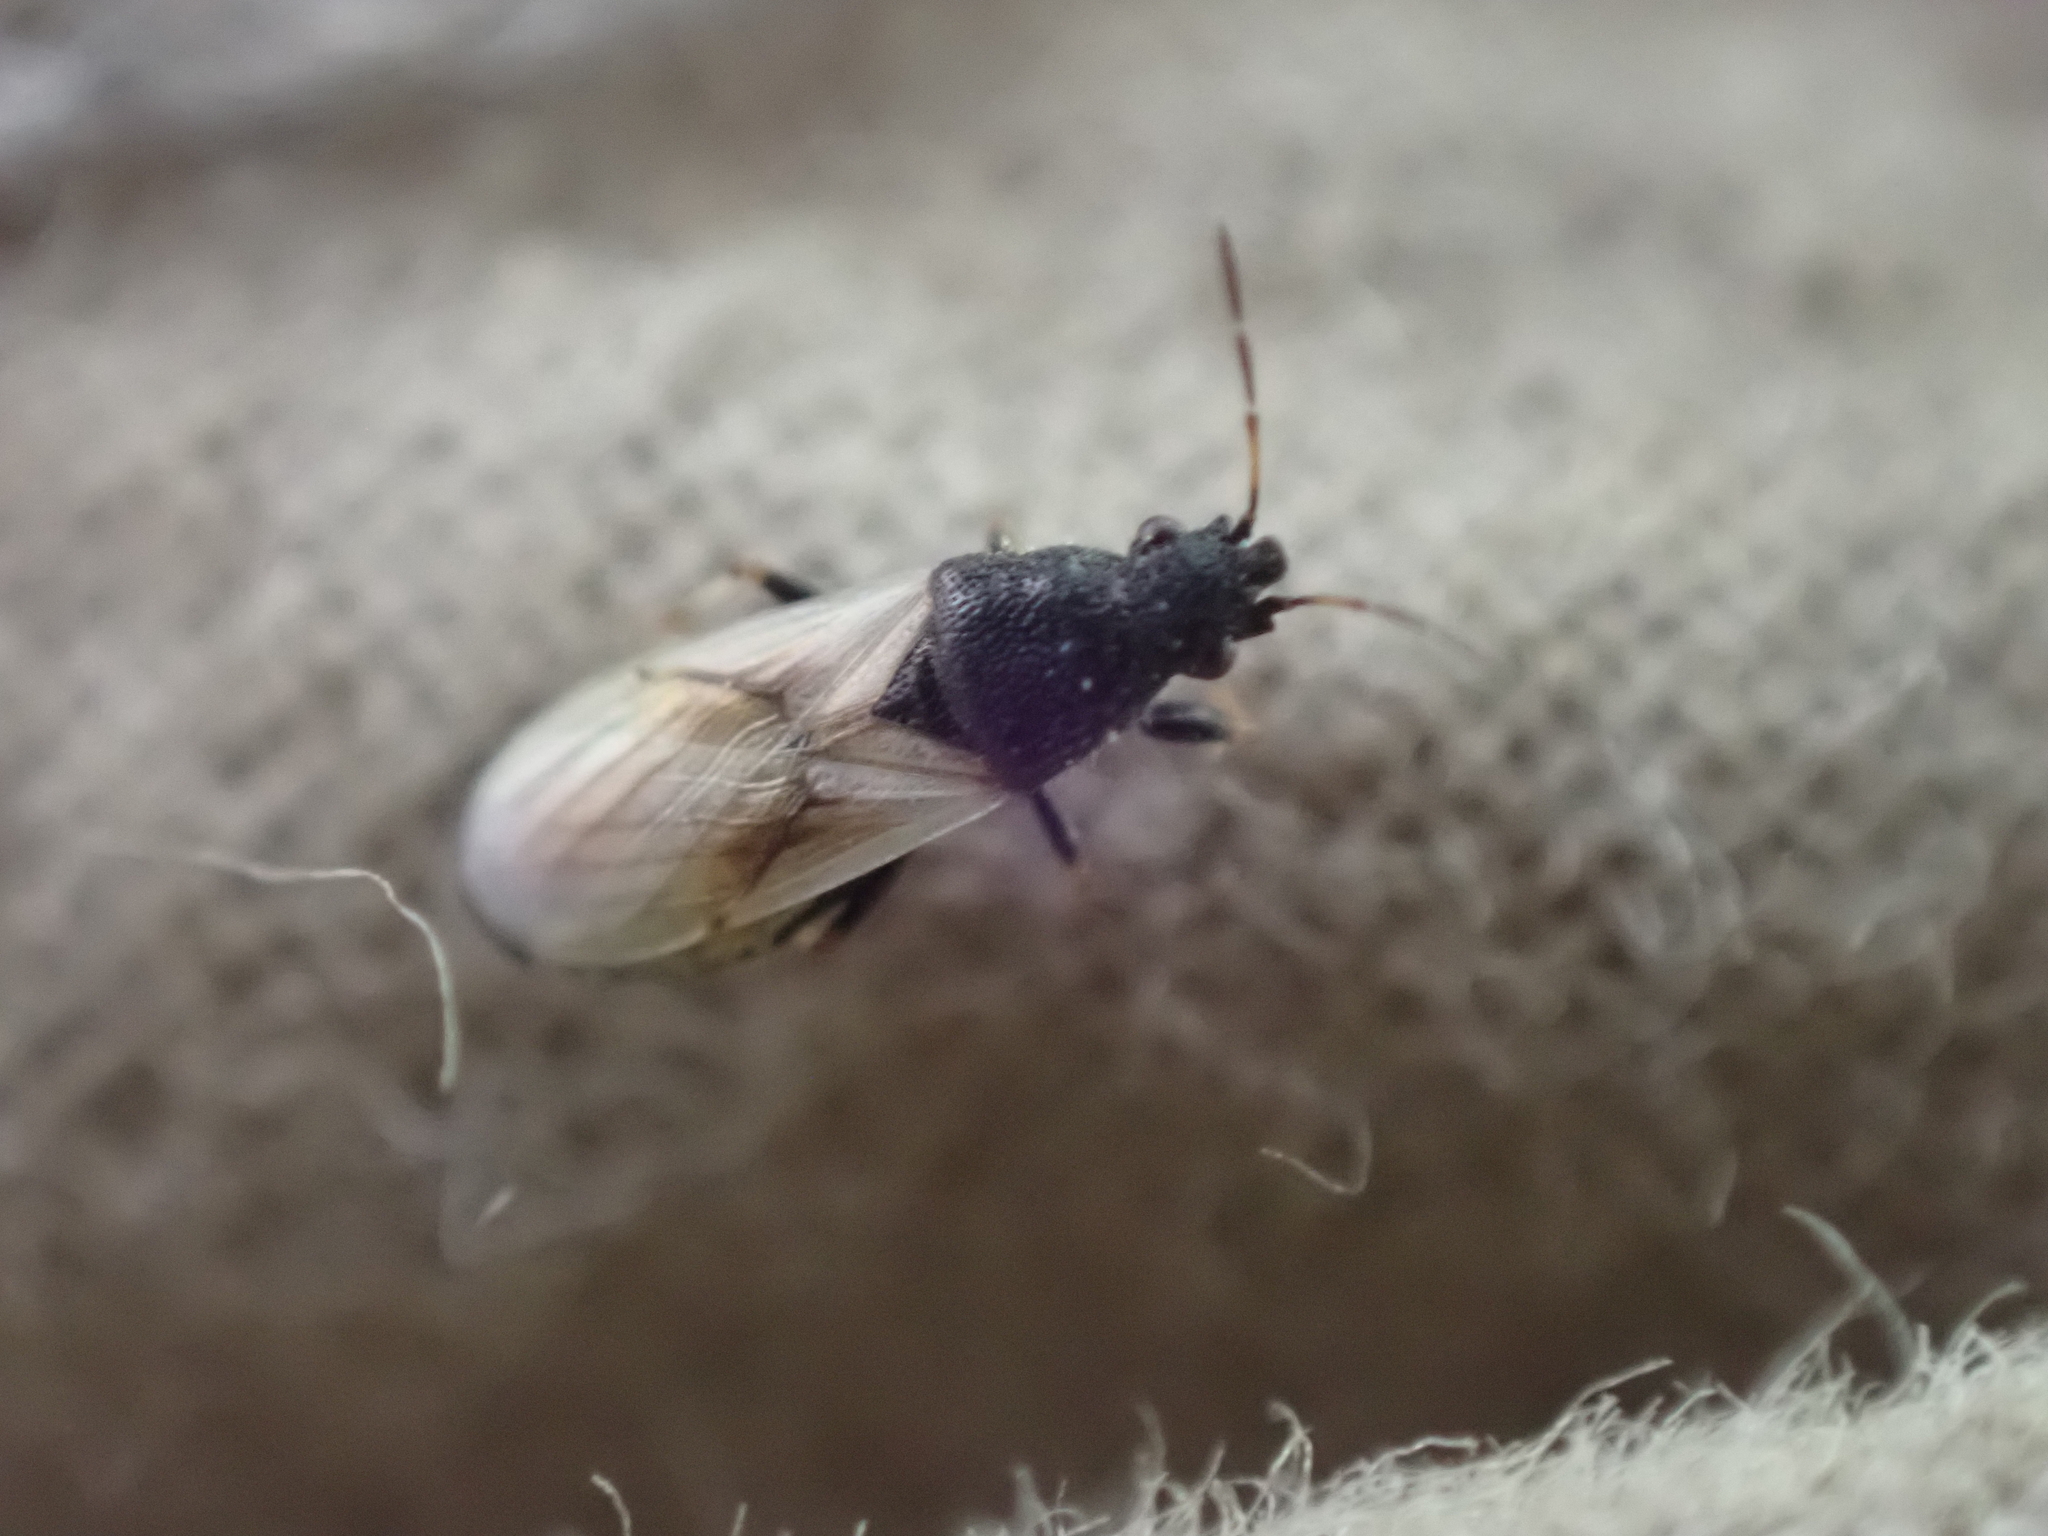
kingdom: Animalia
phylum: Arthropoda
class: Insecta
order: Hemiptera
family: Oxycarenidae
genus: Metopoplax
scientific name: Metopoplax ditomoides
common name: Seed bug
